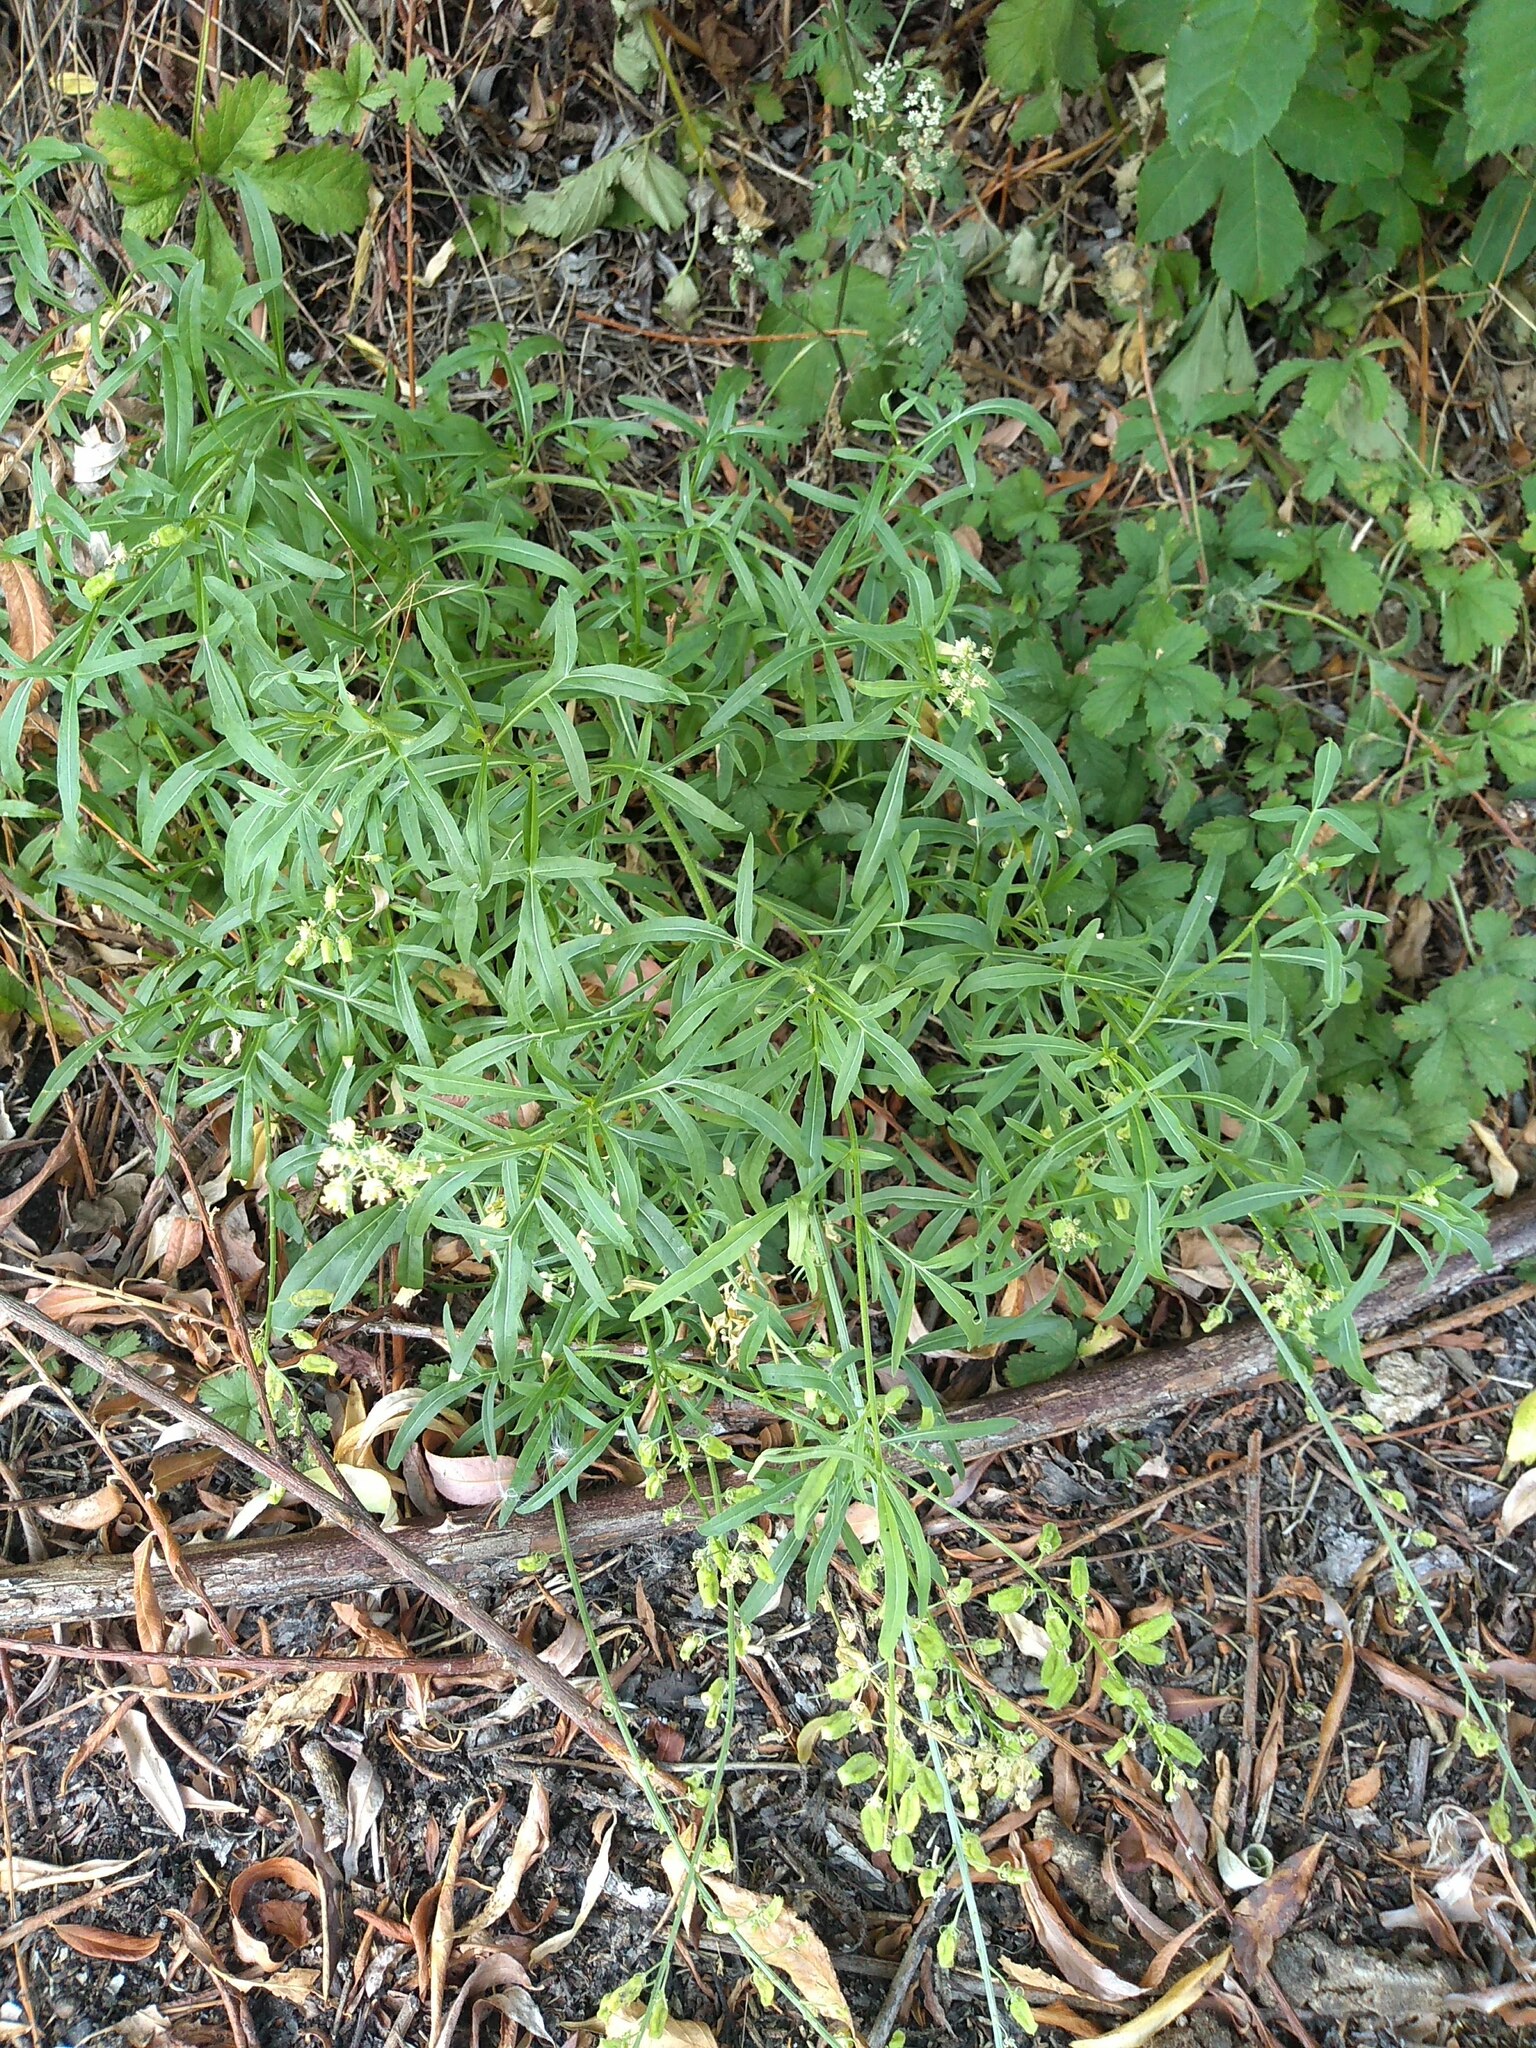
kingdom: Plantae
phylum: Tracheophyta
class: Magnoliopsida
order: Brassicales
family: Resedaceae
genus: Reseda
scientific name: Reseda lutea
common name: Wild mignonette
